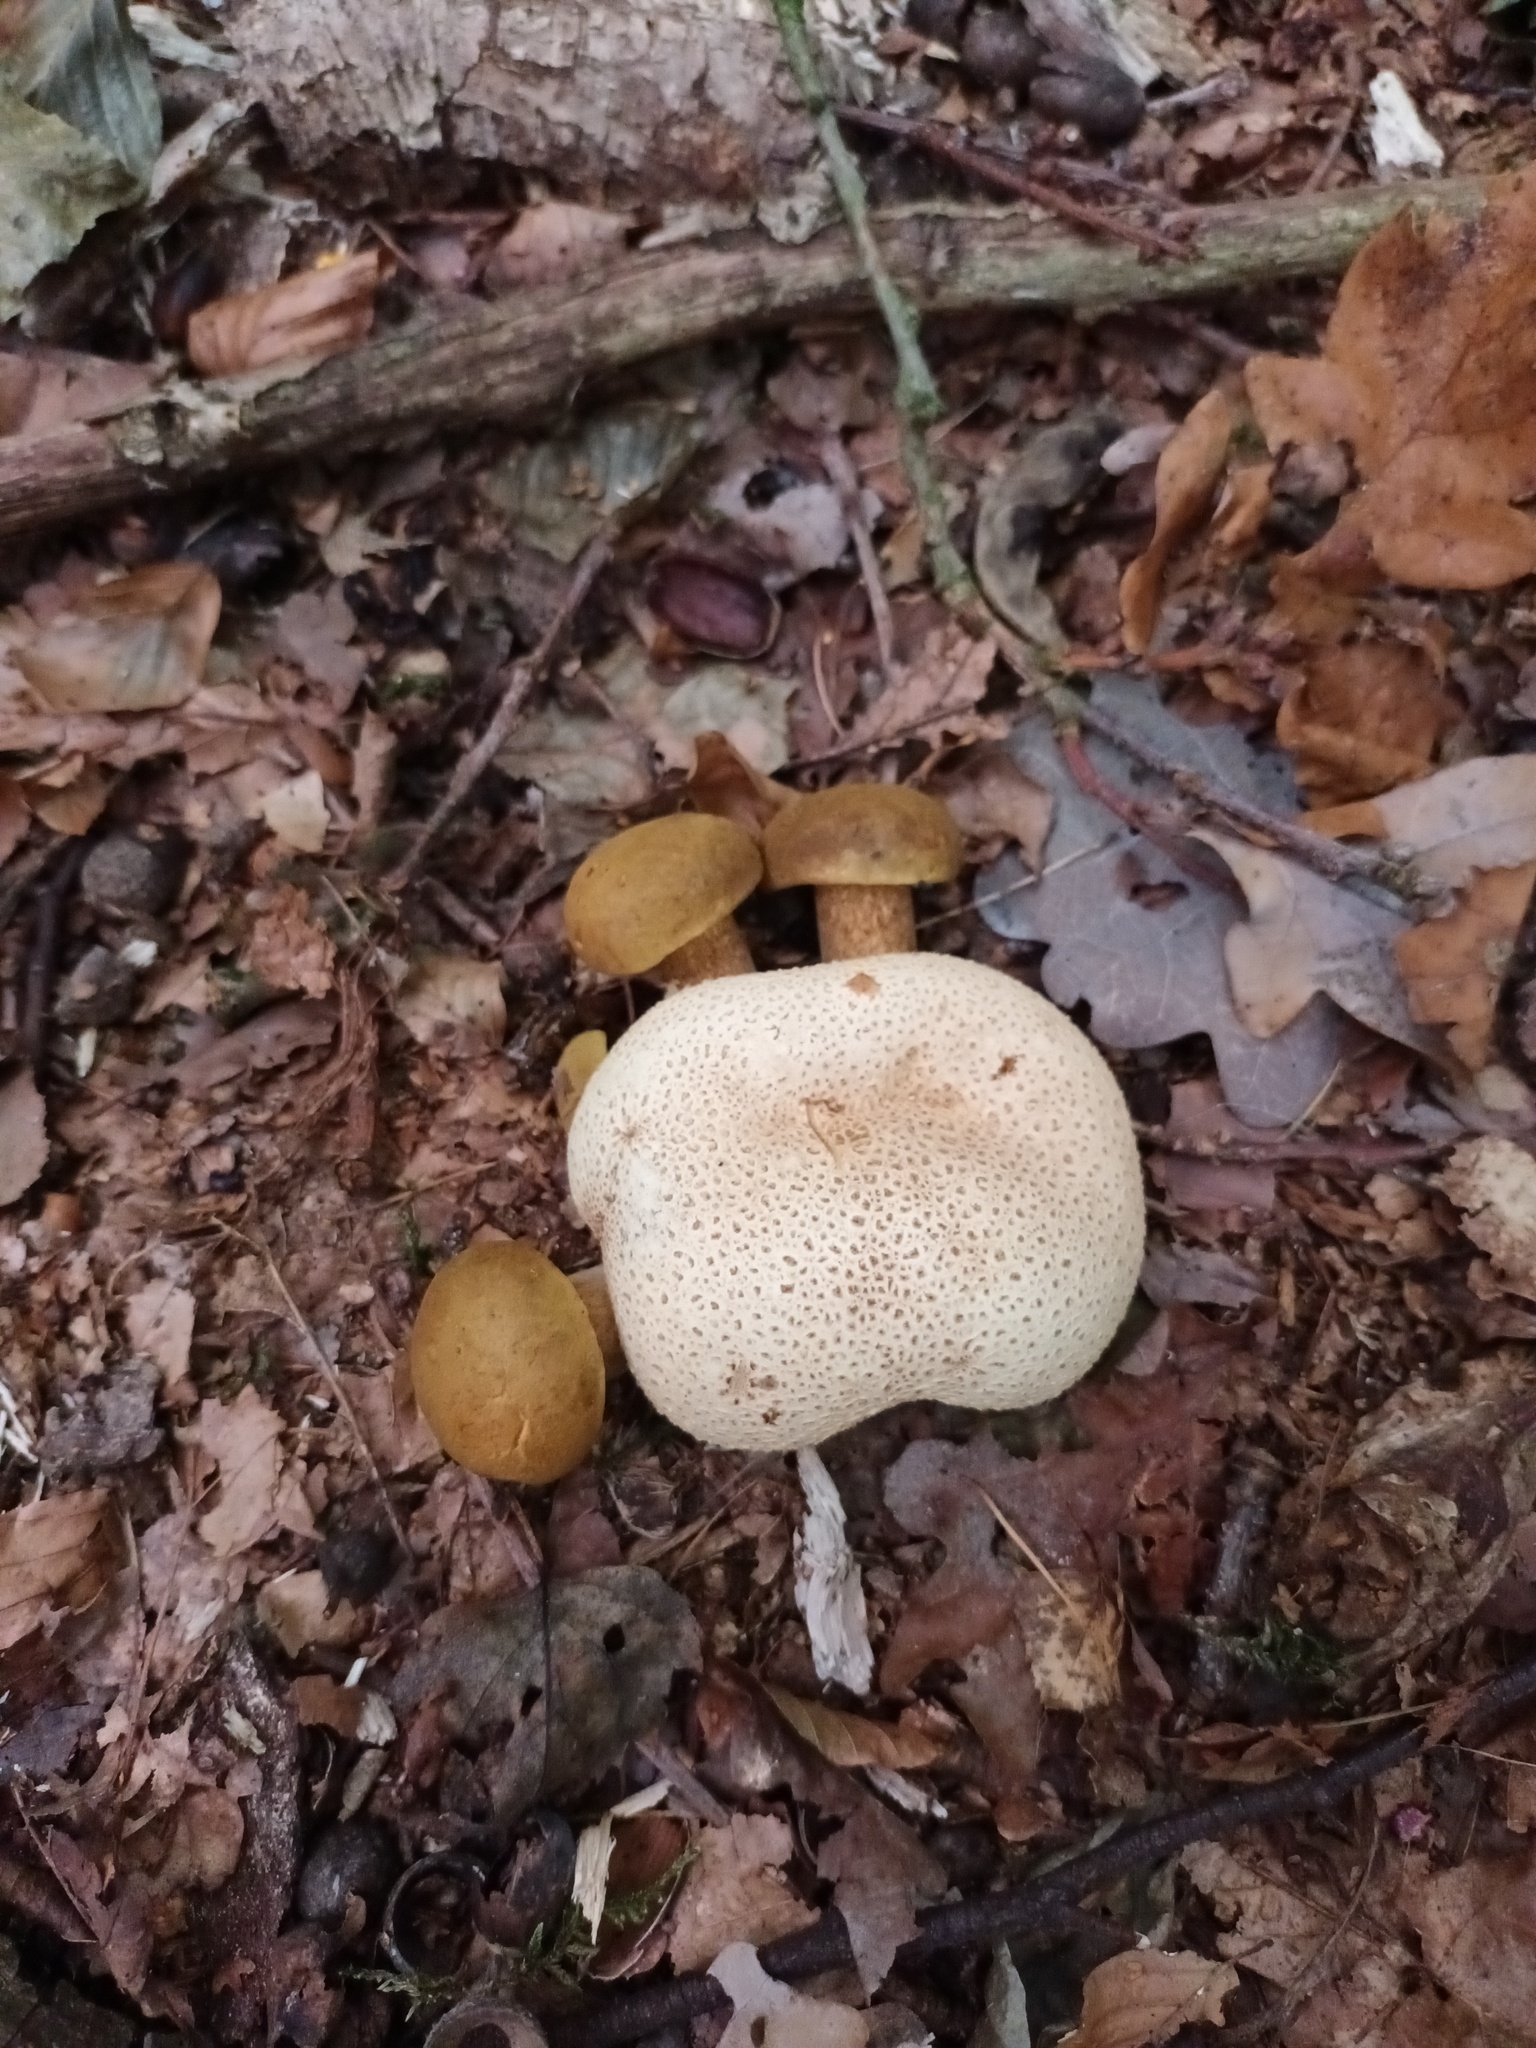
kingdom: Fungi
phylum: Basidiomycota
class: Agaricomycetes
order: Boletales
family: Boletaceae
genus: Pseudoboletus
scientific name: Pseudoboletus parasiticus
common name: Parasitic bolete
